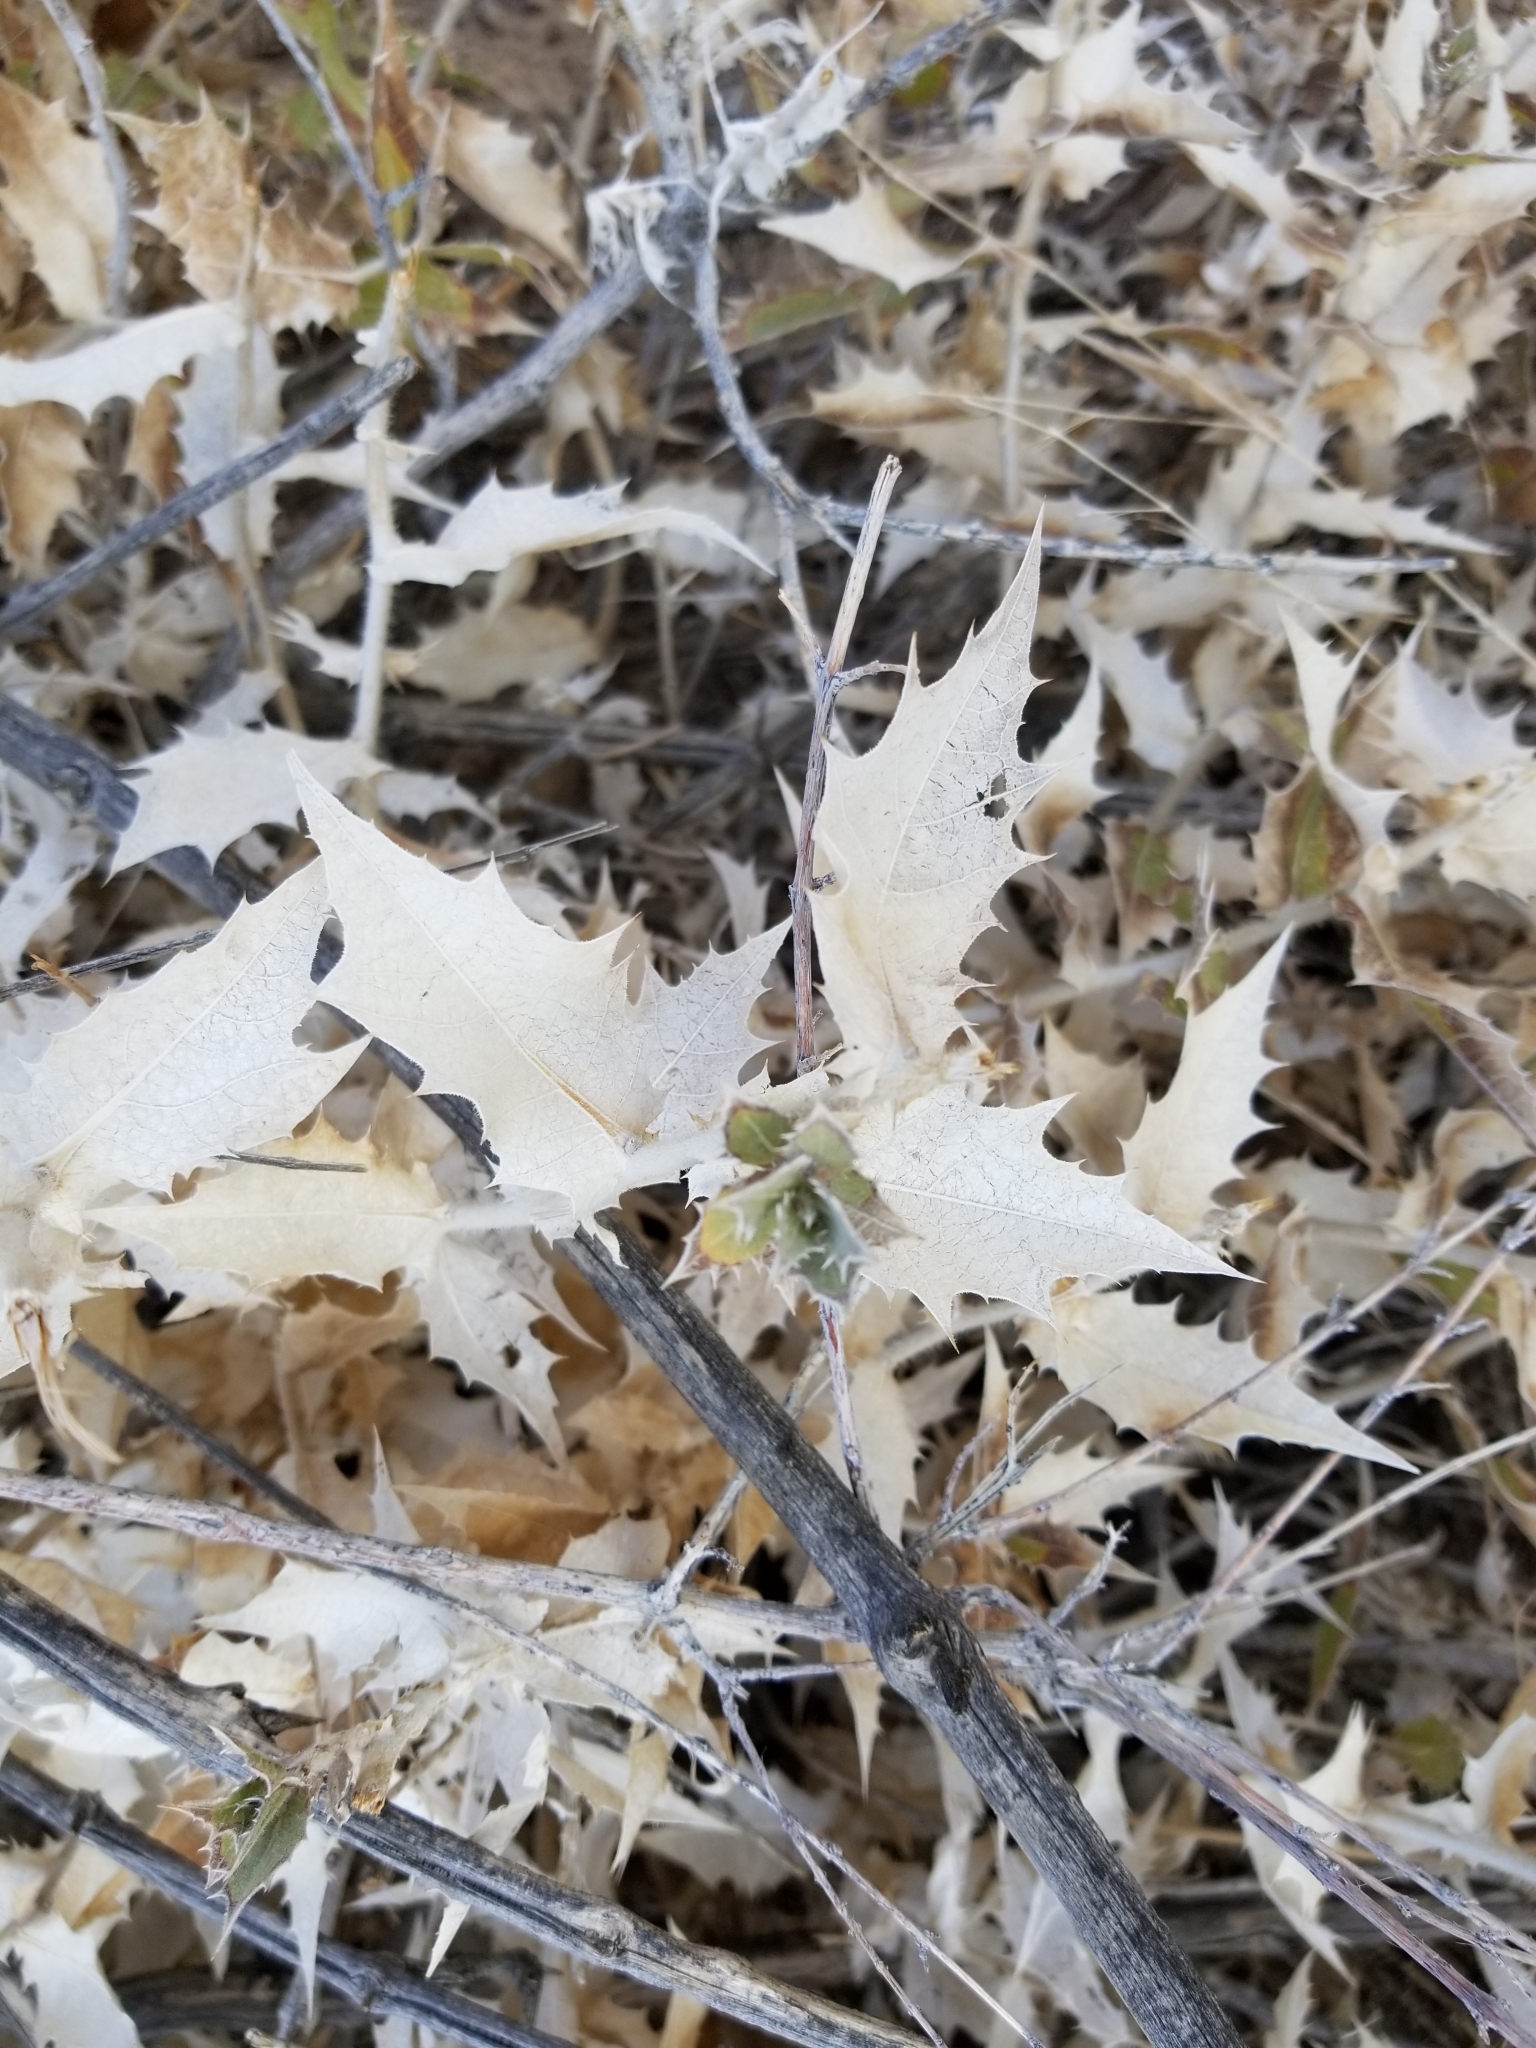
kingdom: Plantae
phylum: Tracheophyta
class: Magnoliopsida
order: Asterales
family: Asteraceae
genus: Ambrosia
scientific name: Ambrosia ilicifolia
